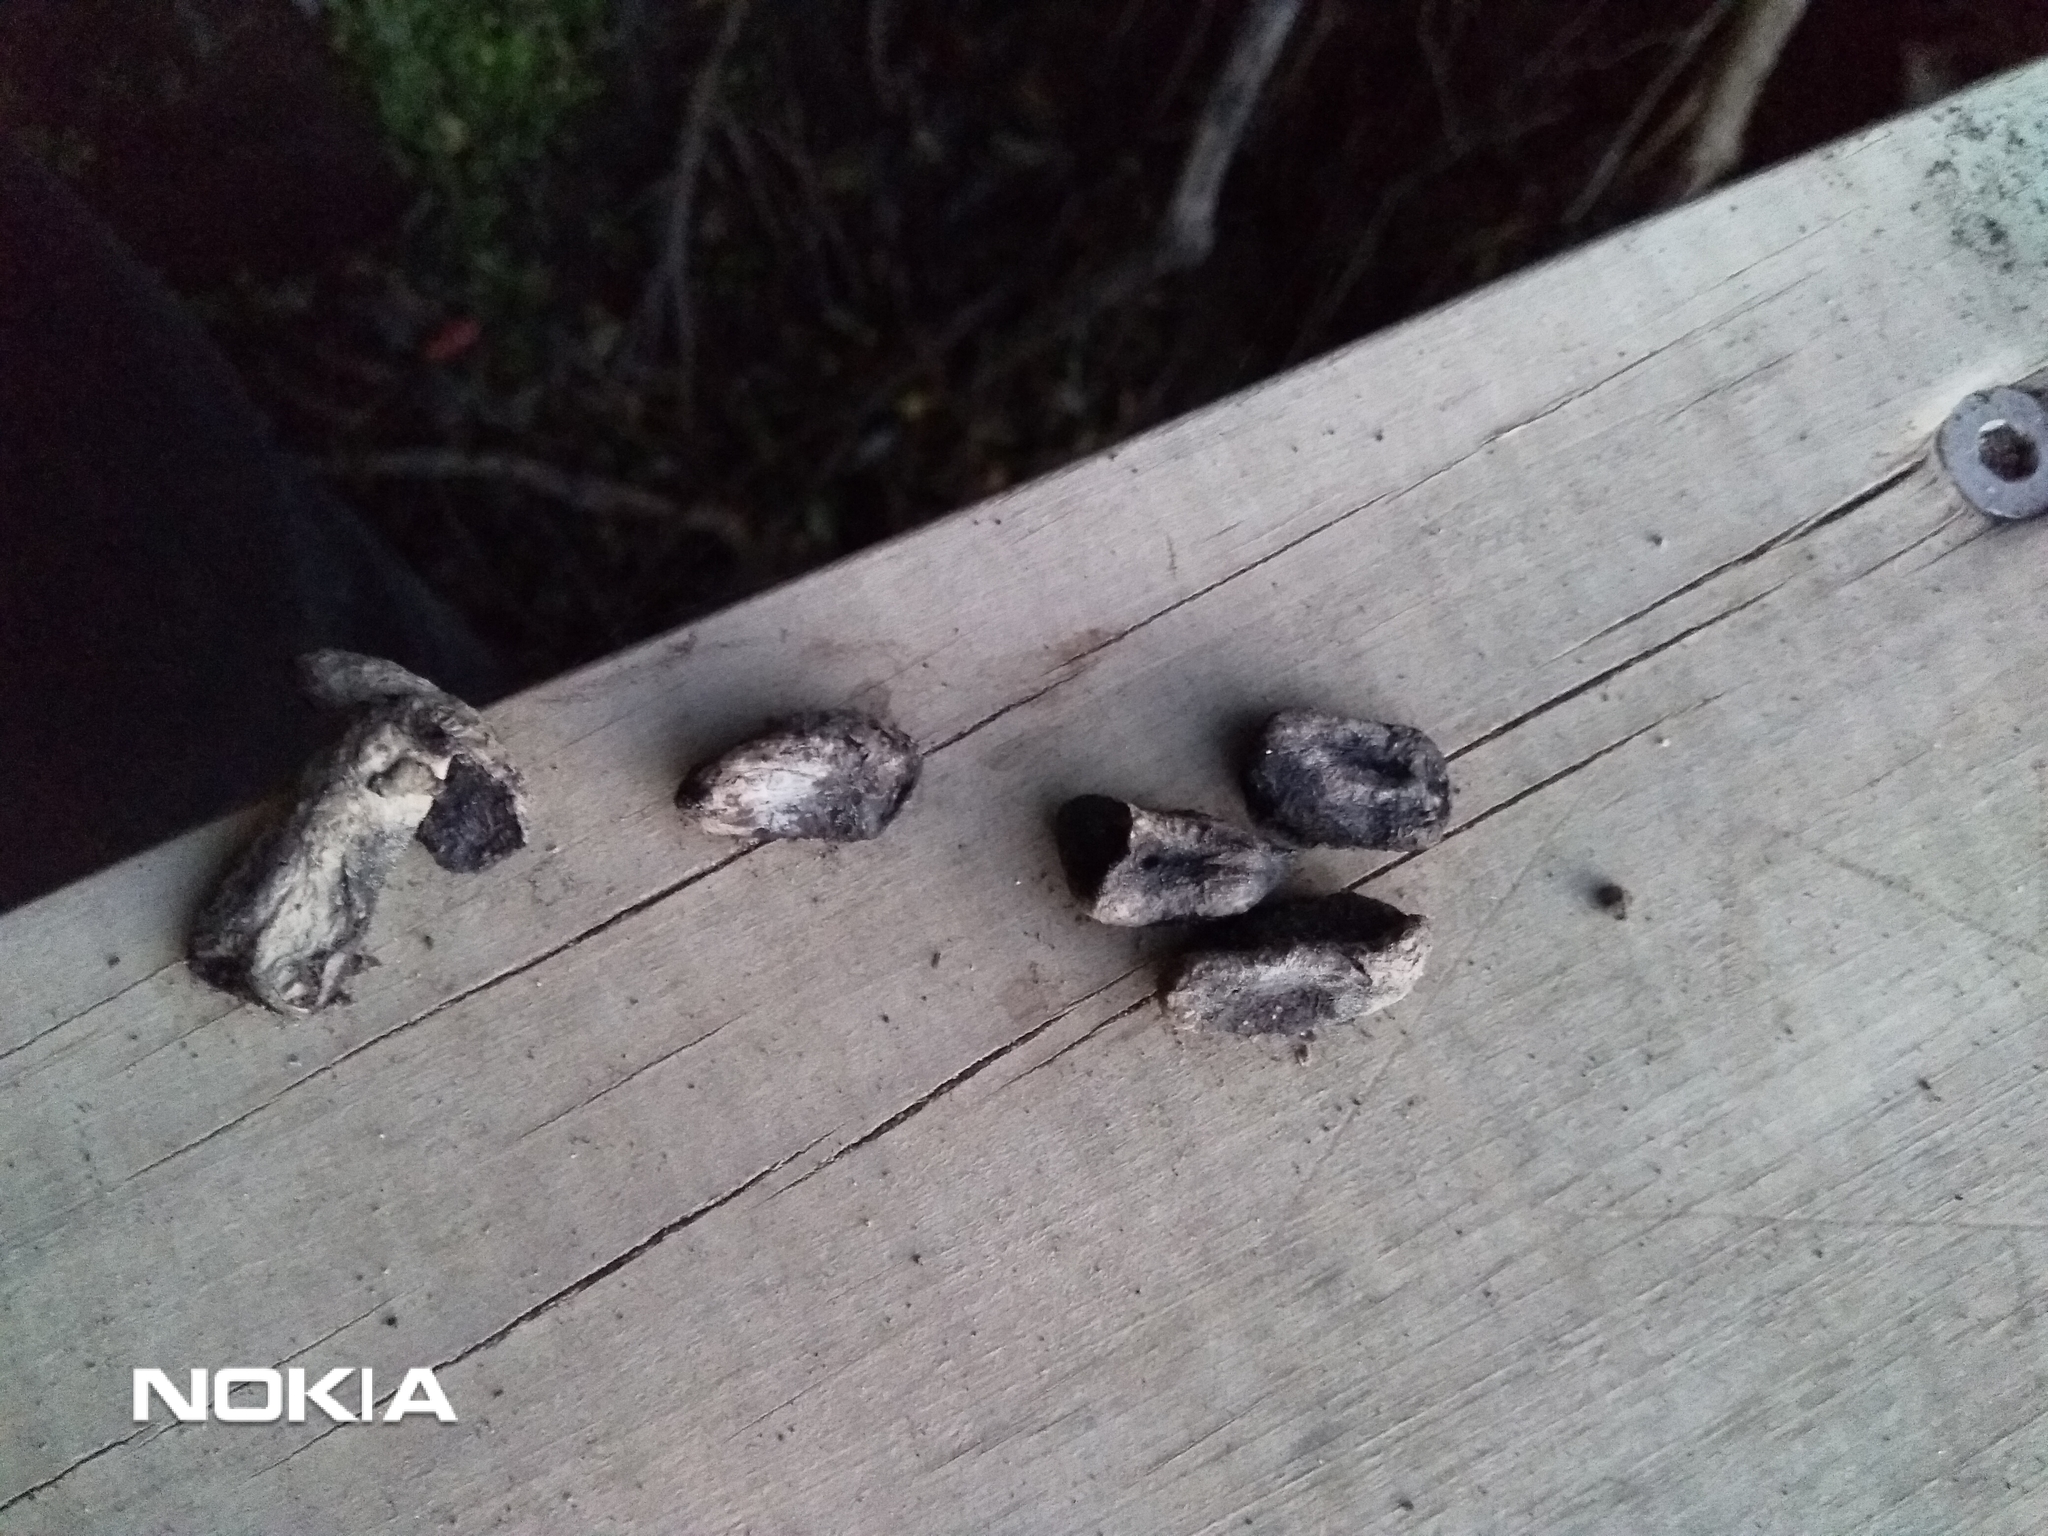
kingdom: Animalia
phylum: Chordata
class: Mammalia
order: Diprotodontia
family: Phalangeridae
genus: Trichosurus
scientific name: Trichosurus vulpecula
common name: Common brushtail
